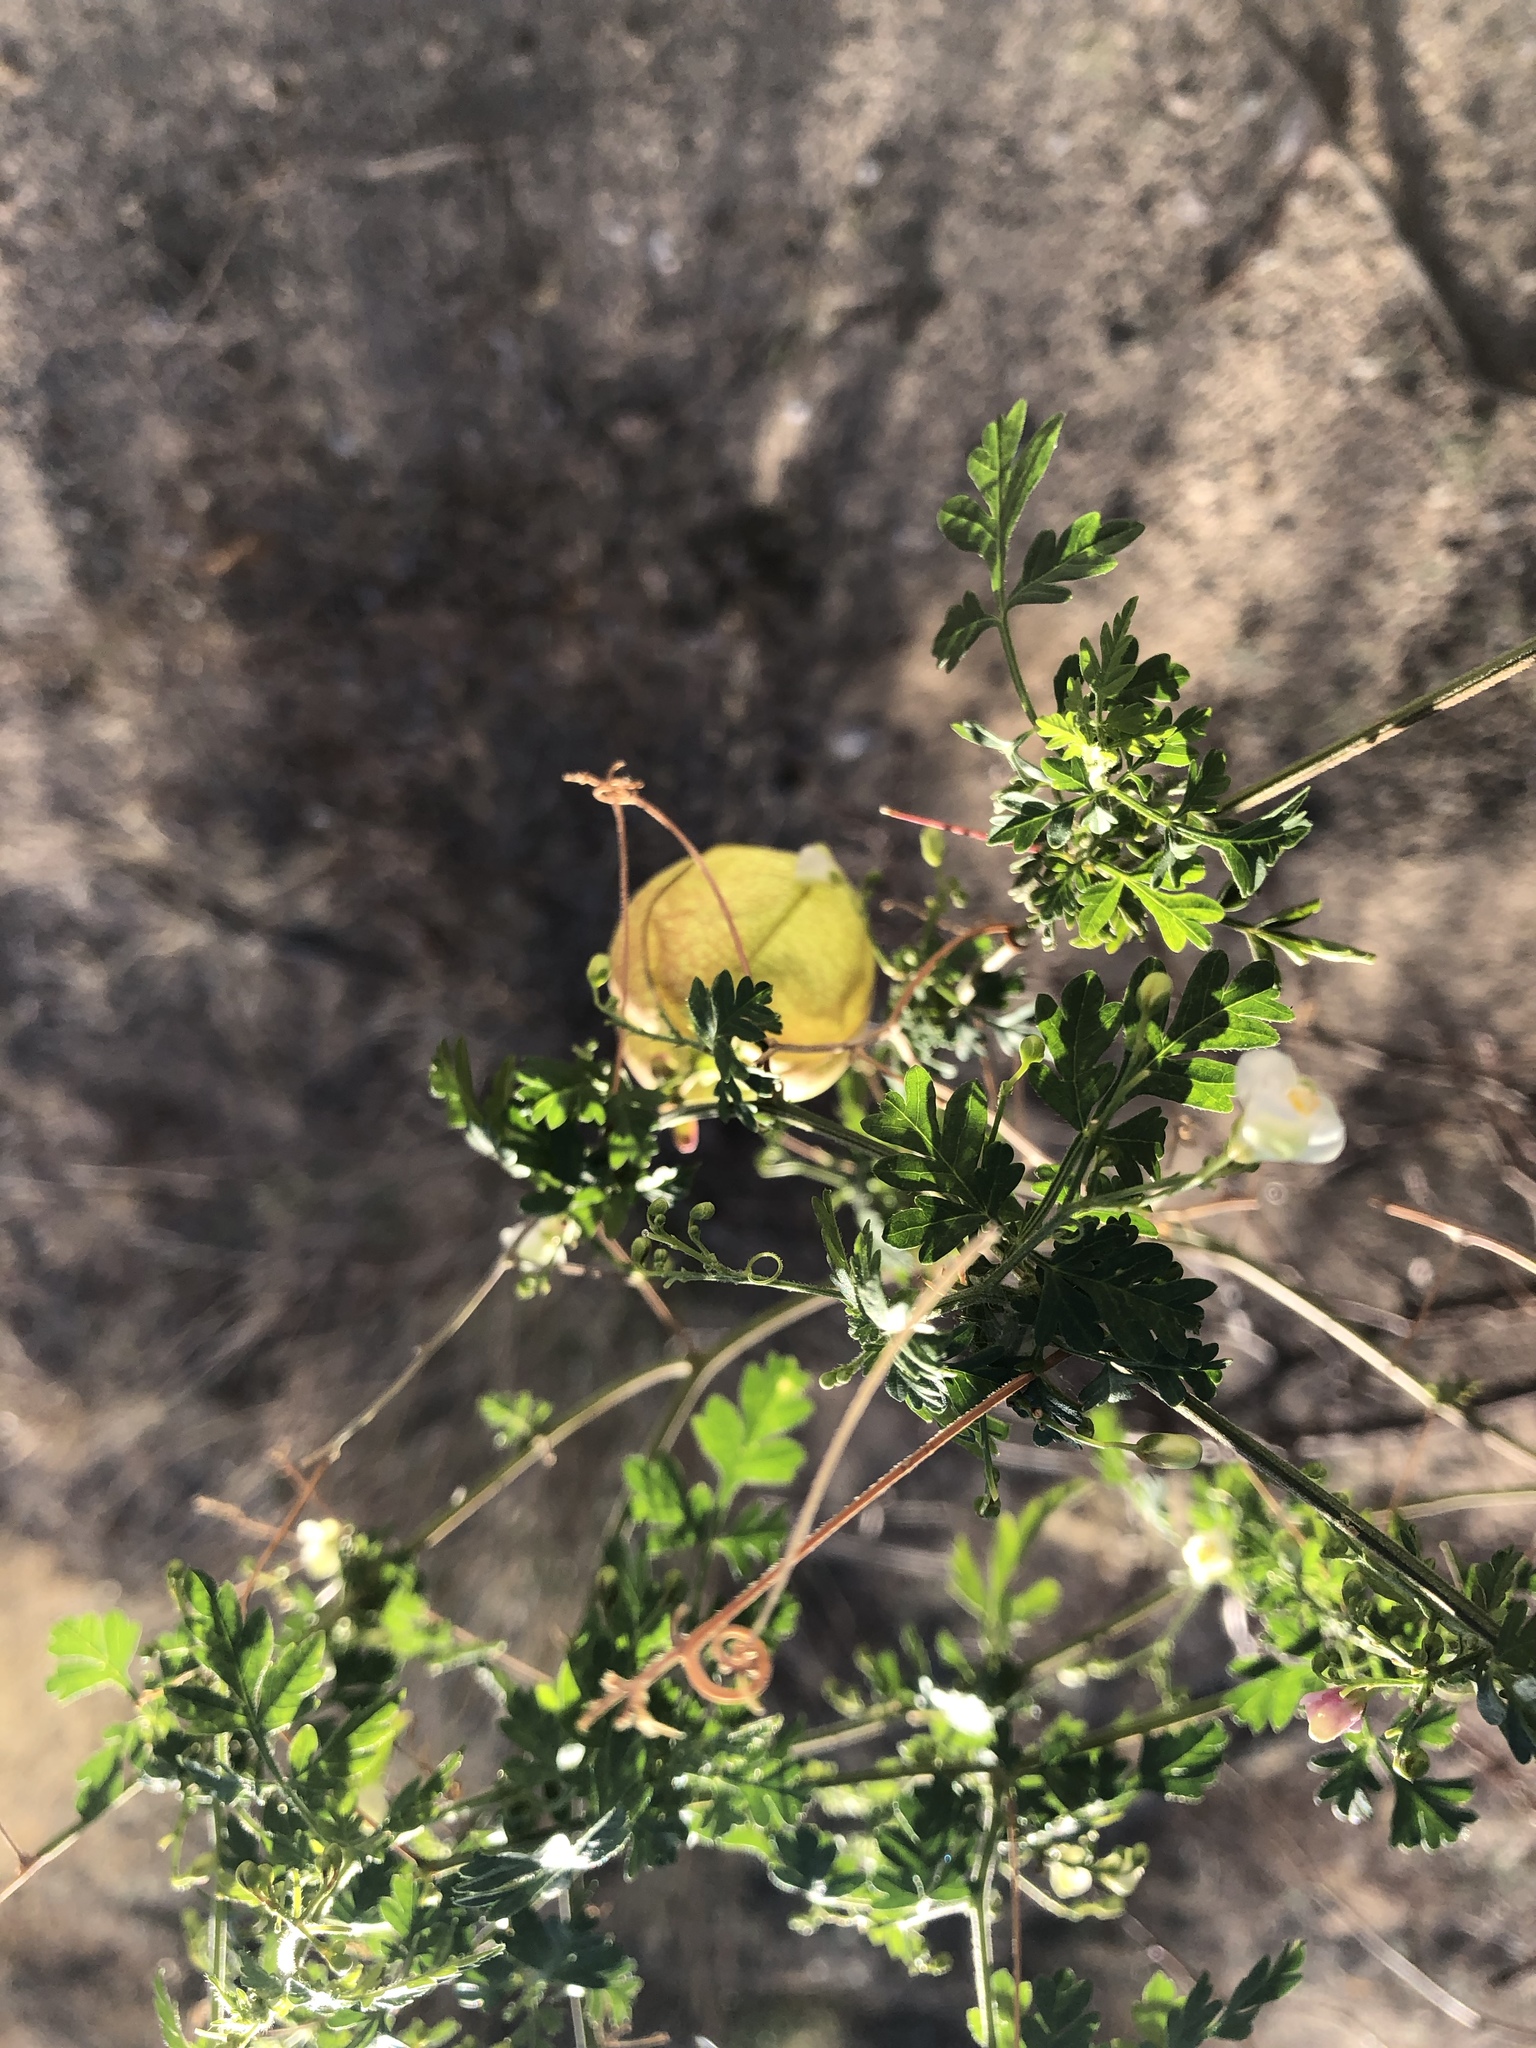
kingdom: Plantae
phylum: Tracheophyta
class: Magnoliopsida
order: Sapindales
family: Sapindaceae
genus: Cardiospermum
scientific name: Cardiospermum corindum
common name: Faux persil
